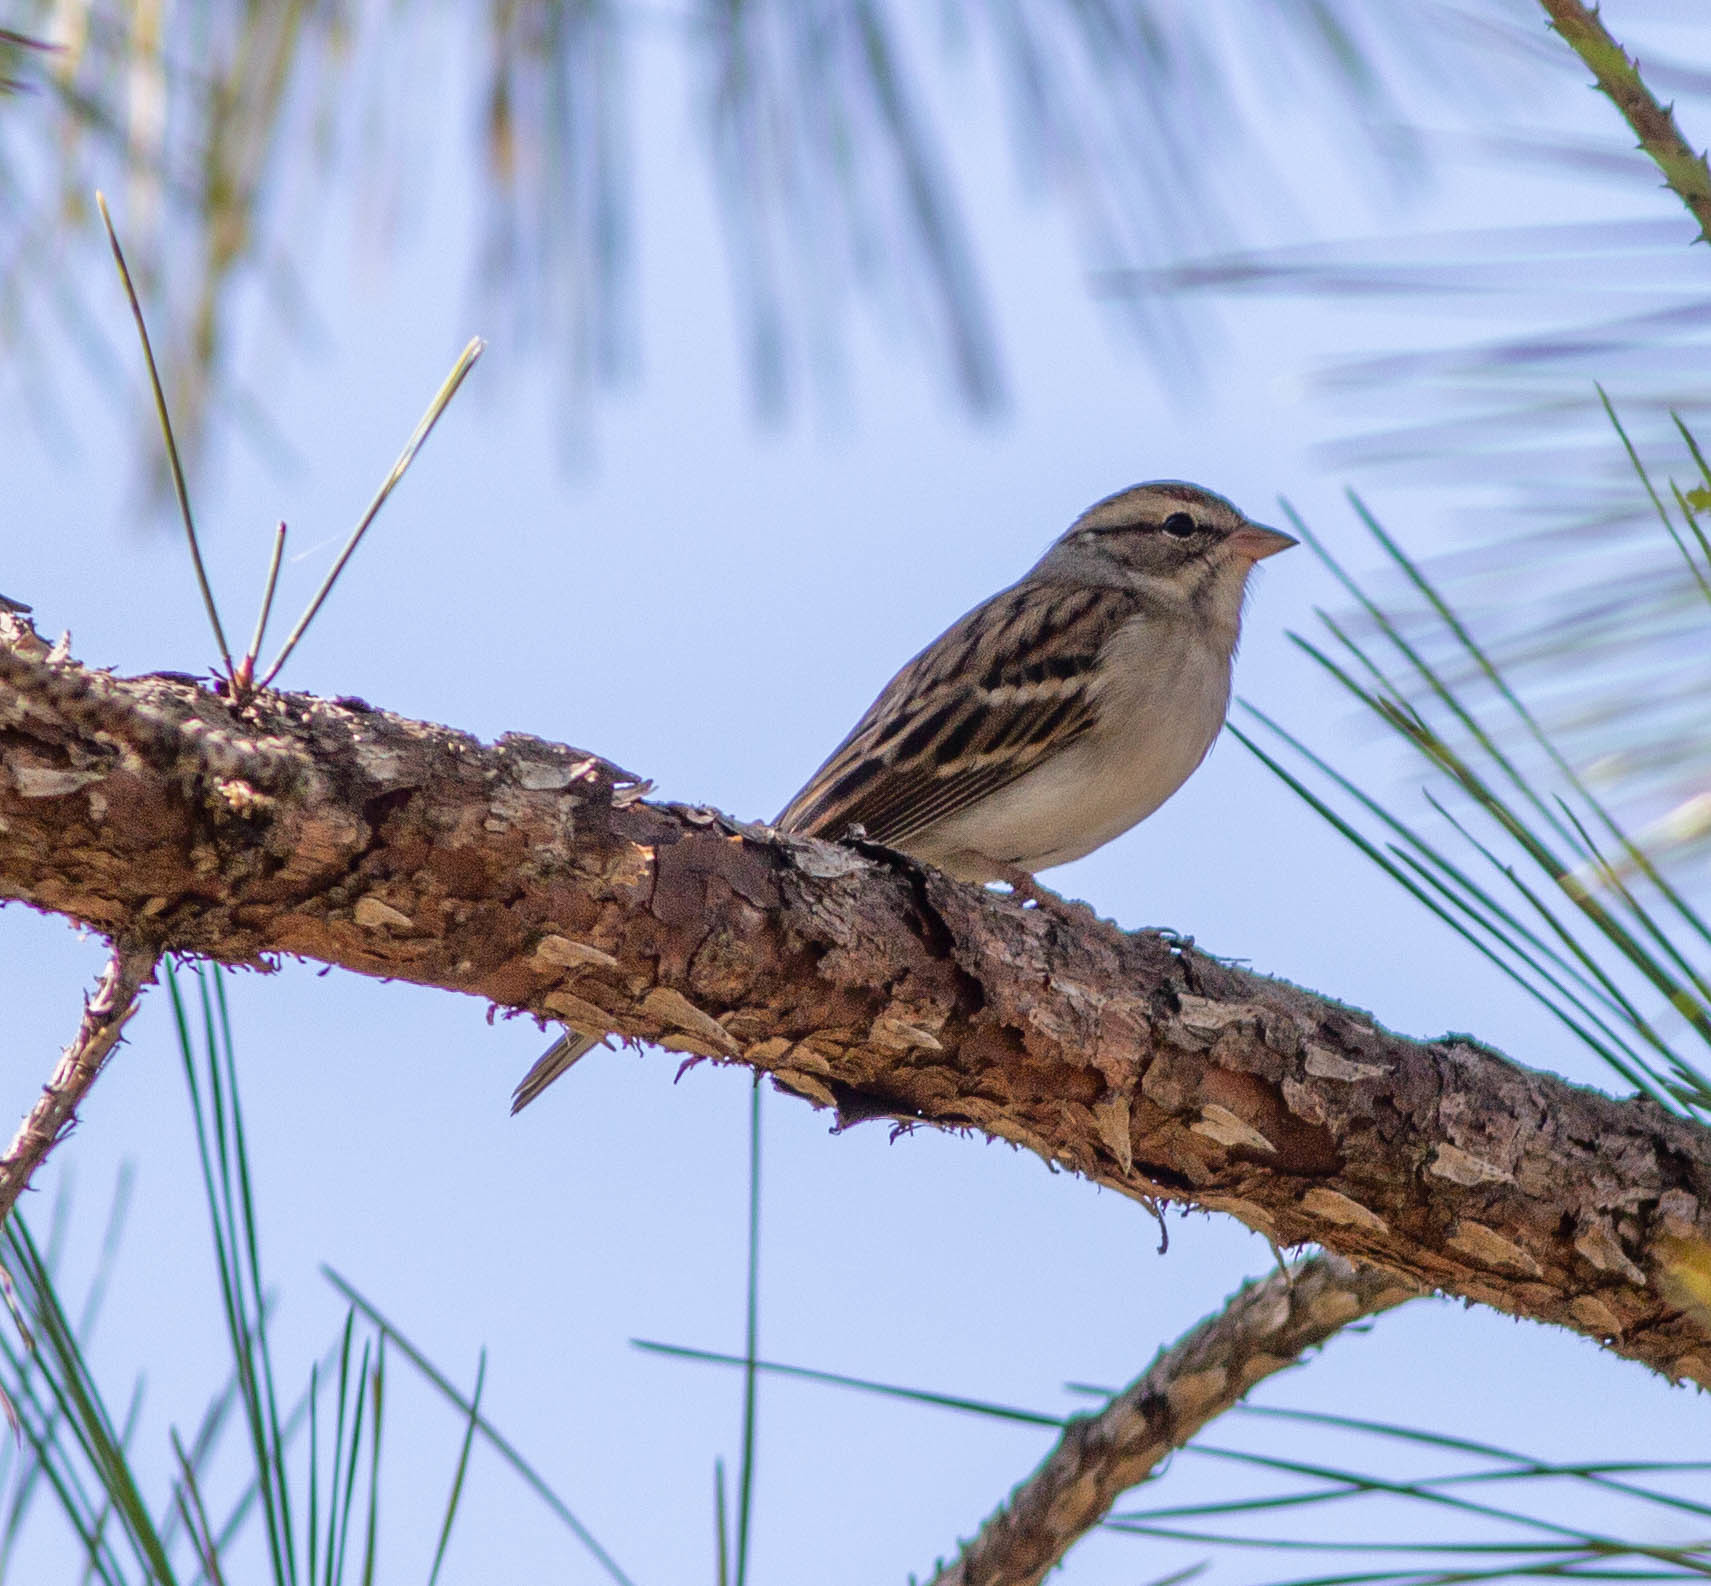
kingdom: Animalia
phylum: Chordata
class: Aves
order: Passeriformes
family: Passerellidae
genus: Spizella
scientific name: Spizella passerina
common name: Chipping sparrow
